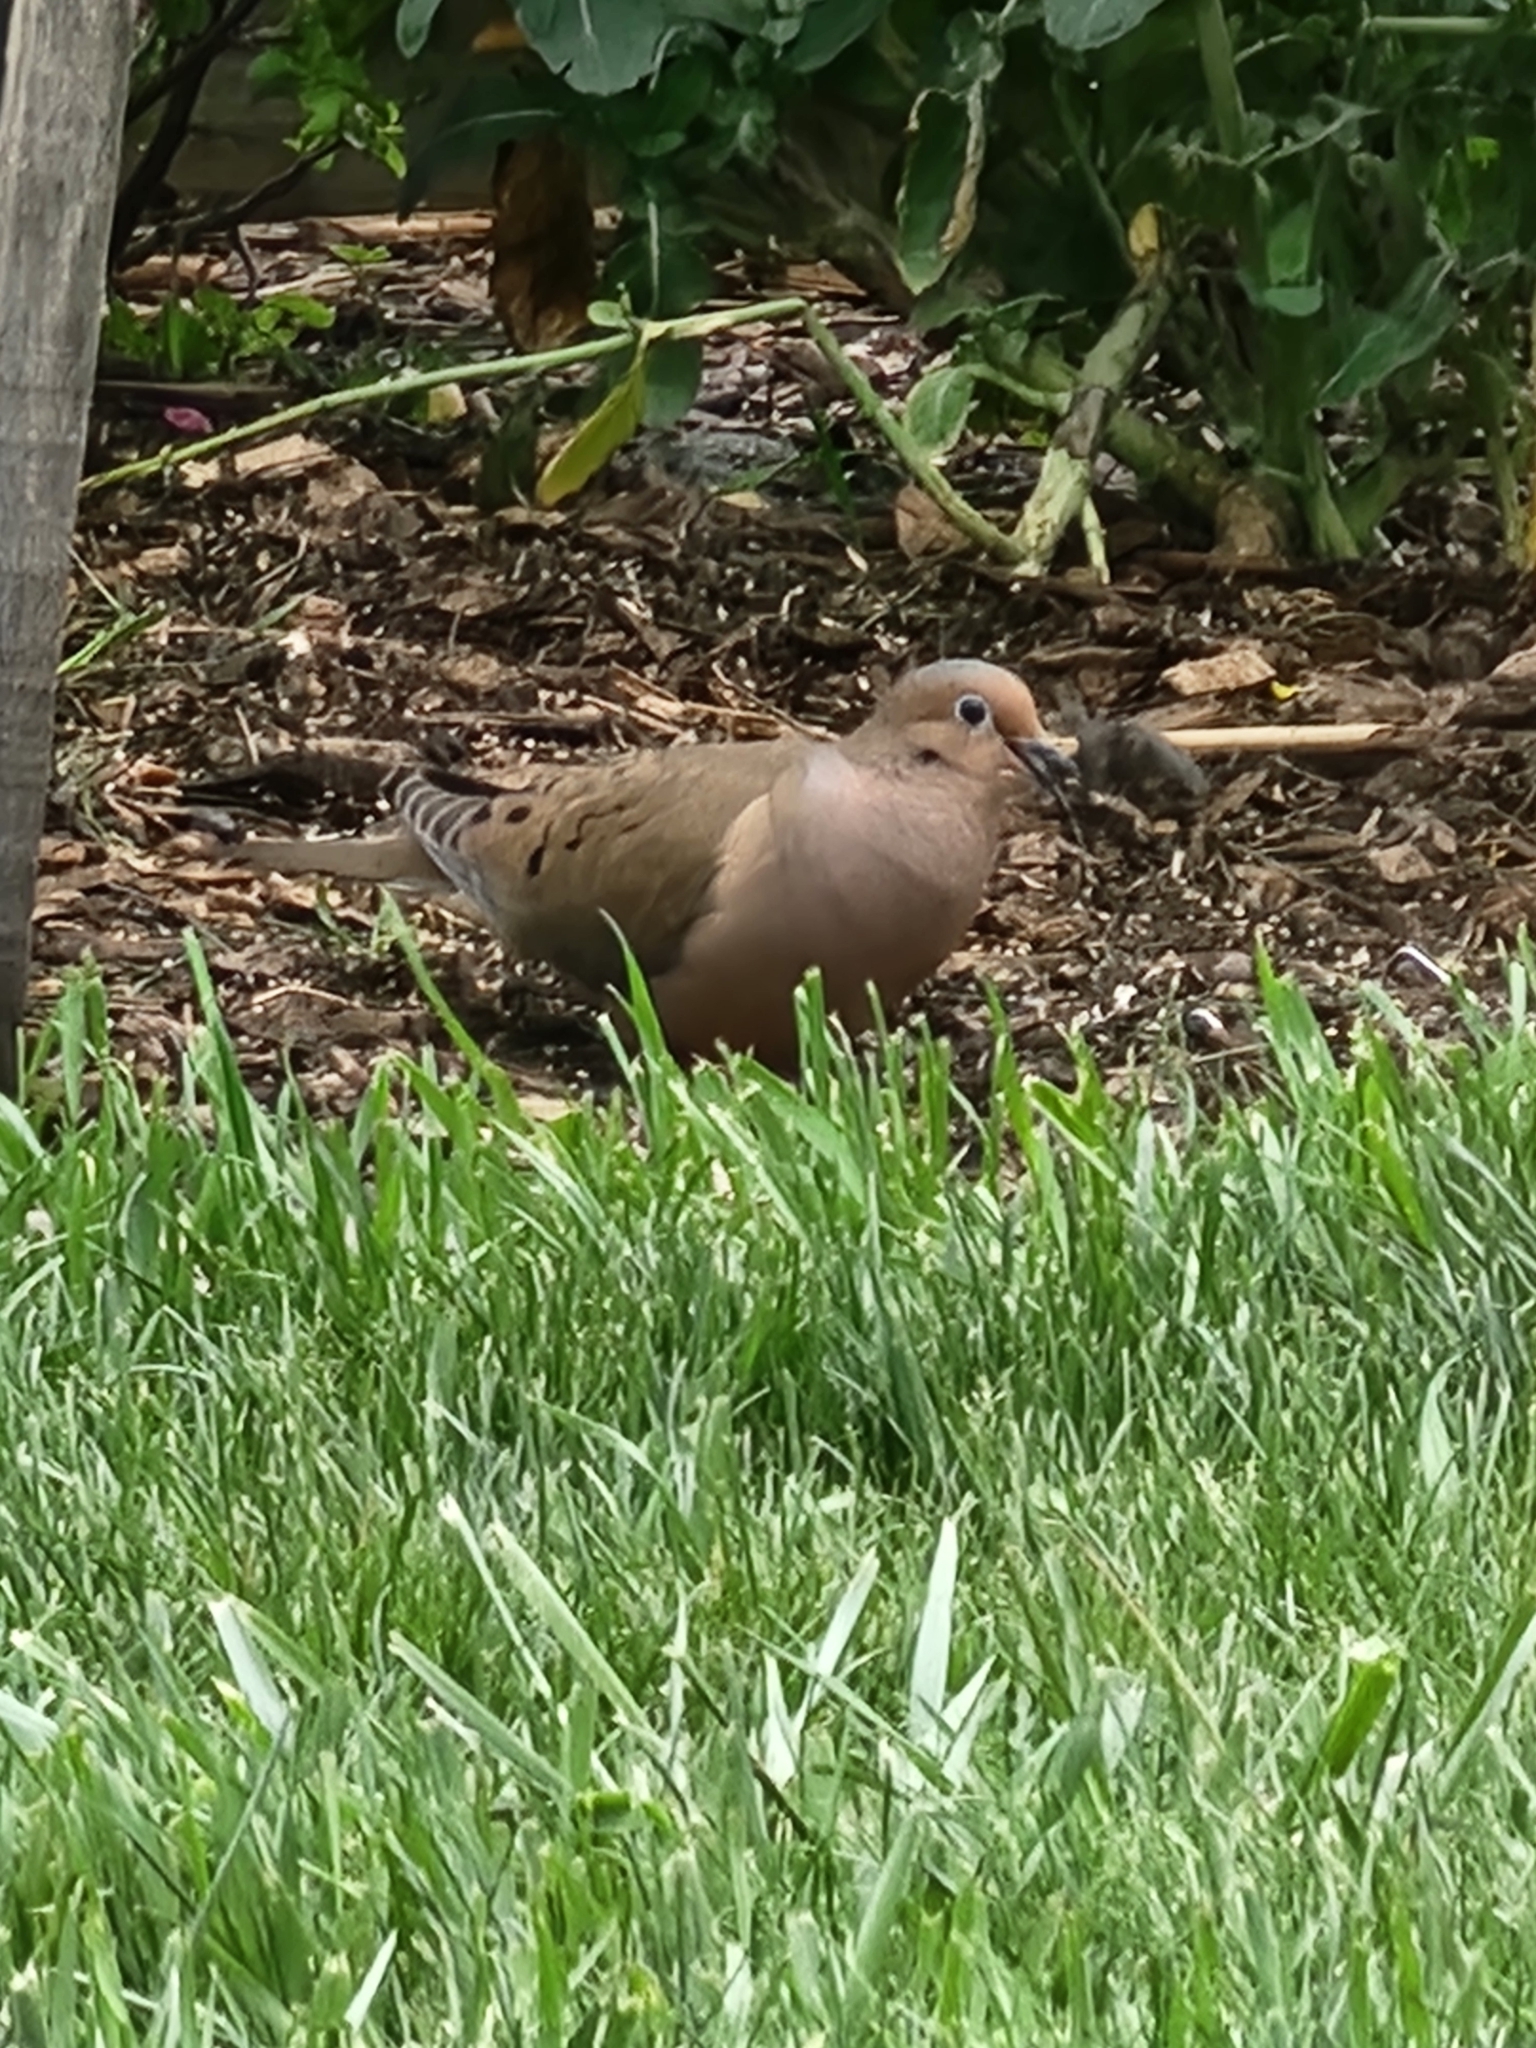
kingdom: Animalia
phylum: Chordata
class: Aves
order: Columbiformes
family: Columbidae
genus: Zenaida
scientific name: Zenaida macroura
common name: Mourning dove
